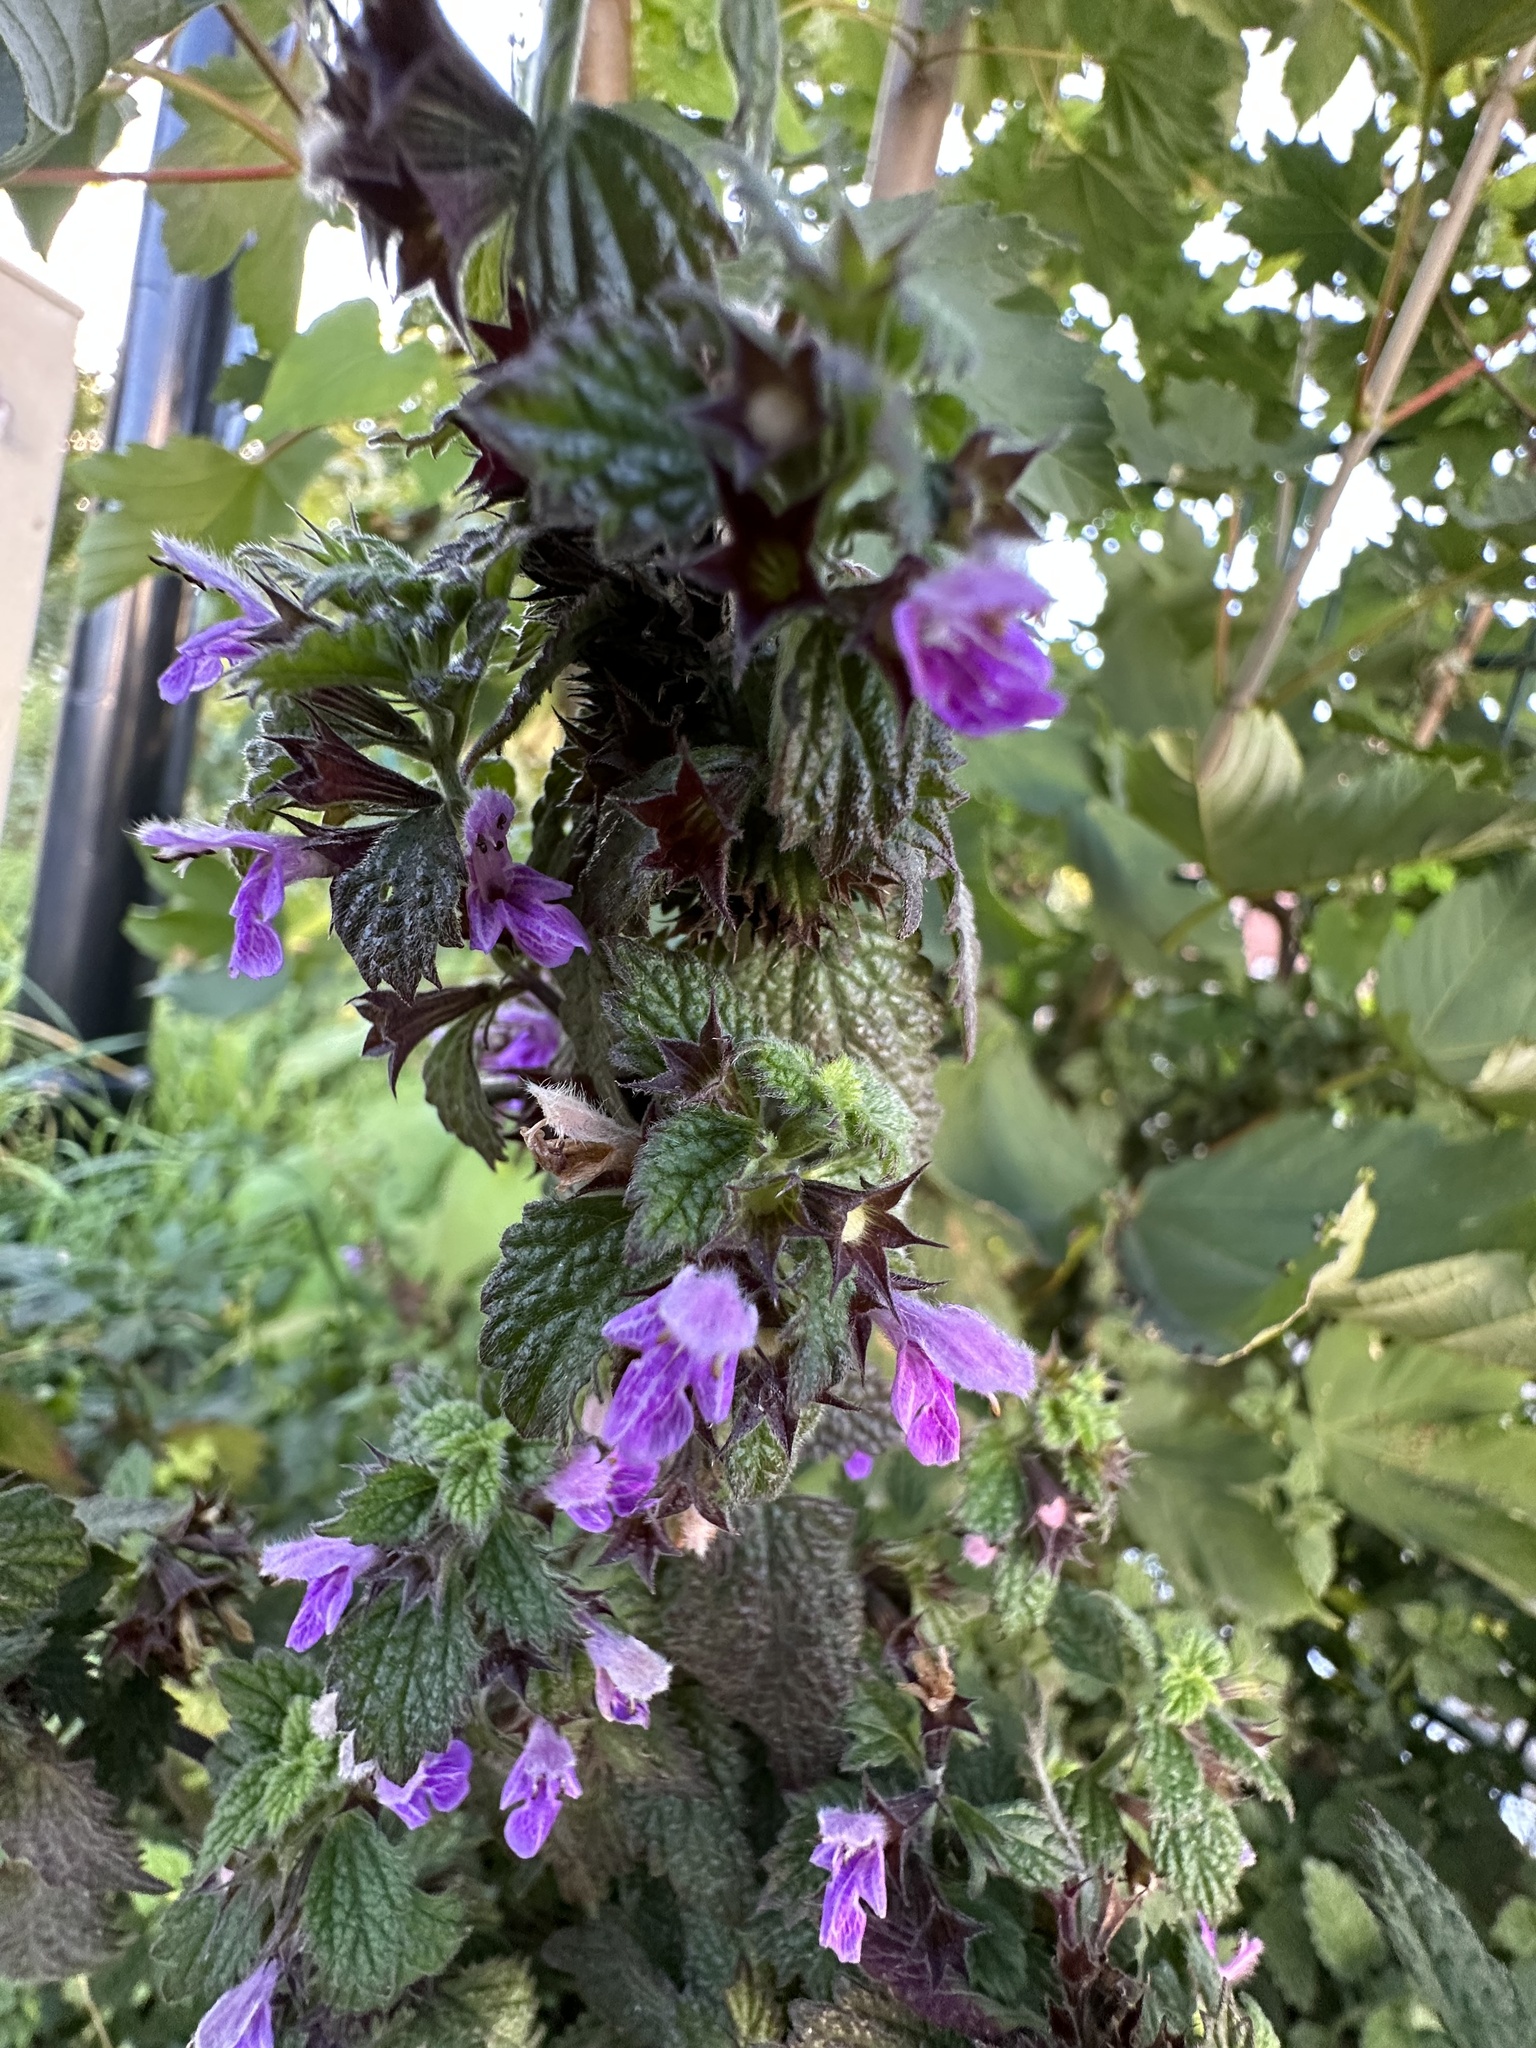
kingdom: Plantae
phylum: Tracheophyta
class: Magnoliopsida
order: Lamiales
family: Lamiaceae
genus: Ballota
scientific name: Ballota nigra
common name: Black horehound
